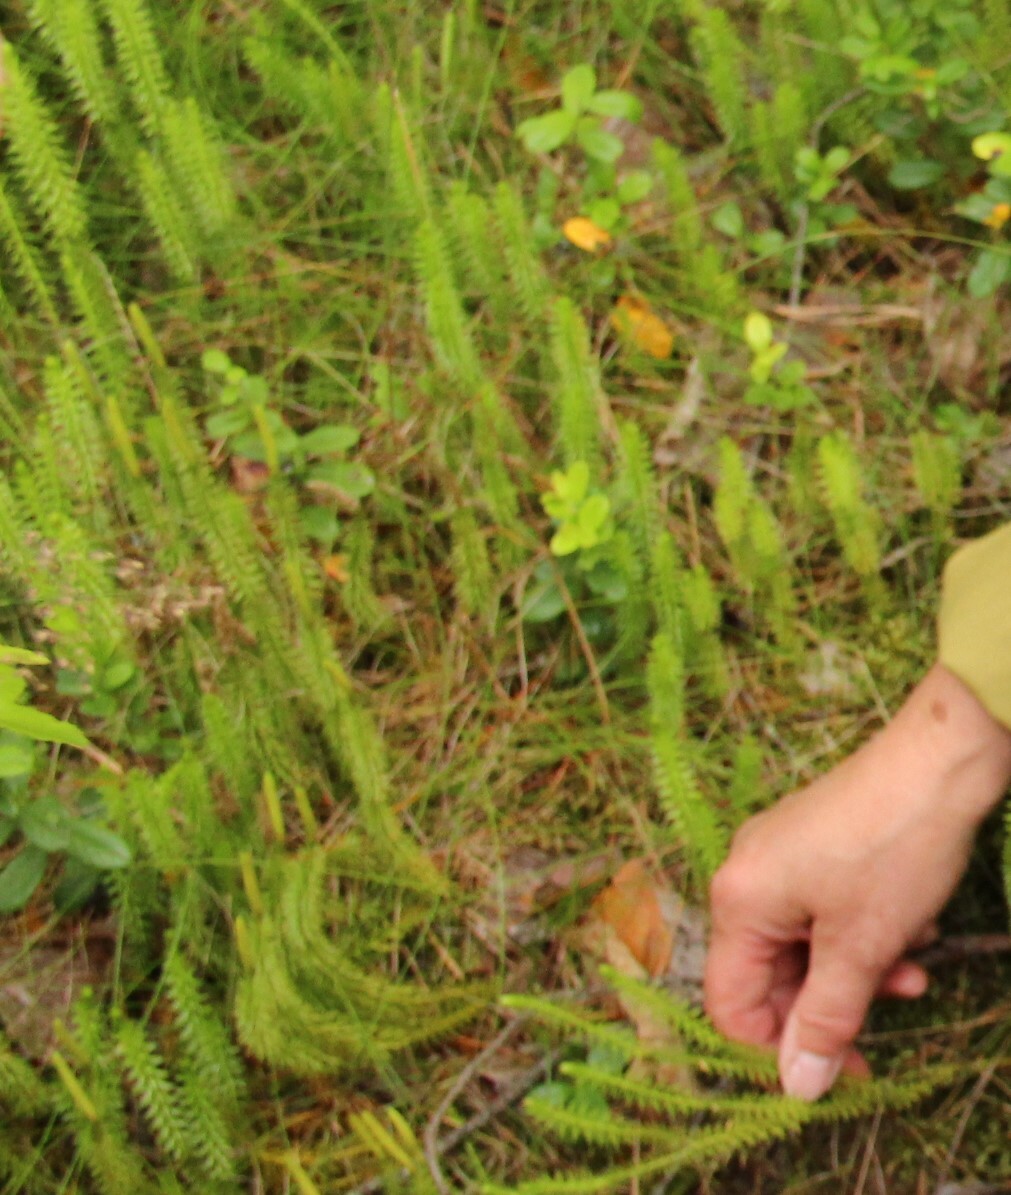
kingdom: Plantae
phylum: Tracheophyta
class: Lycopodiopsida
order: Lycopodiales
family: Lycopodiaceae
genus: Spinulum
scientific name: Spinulum annotinum
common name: Interrupted club-moss
